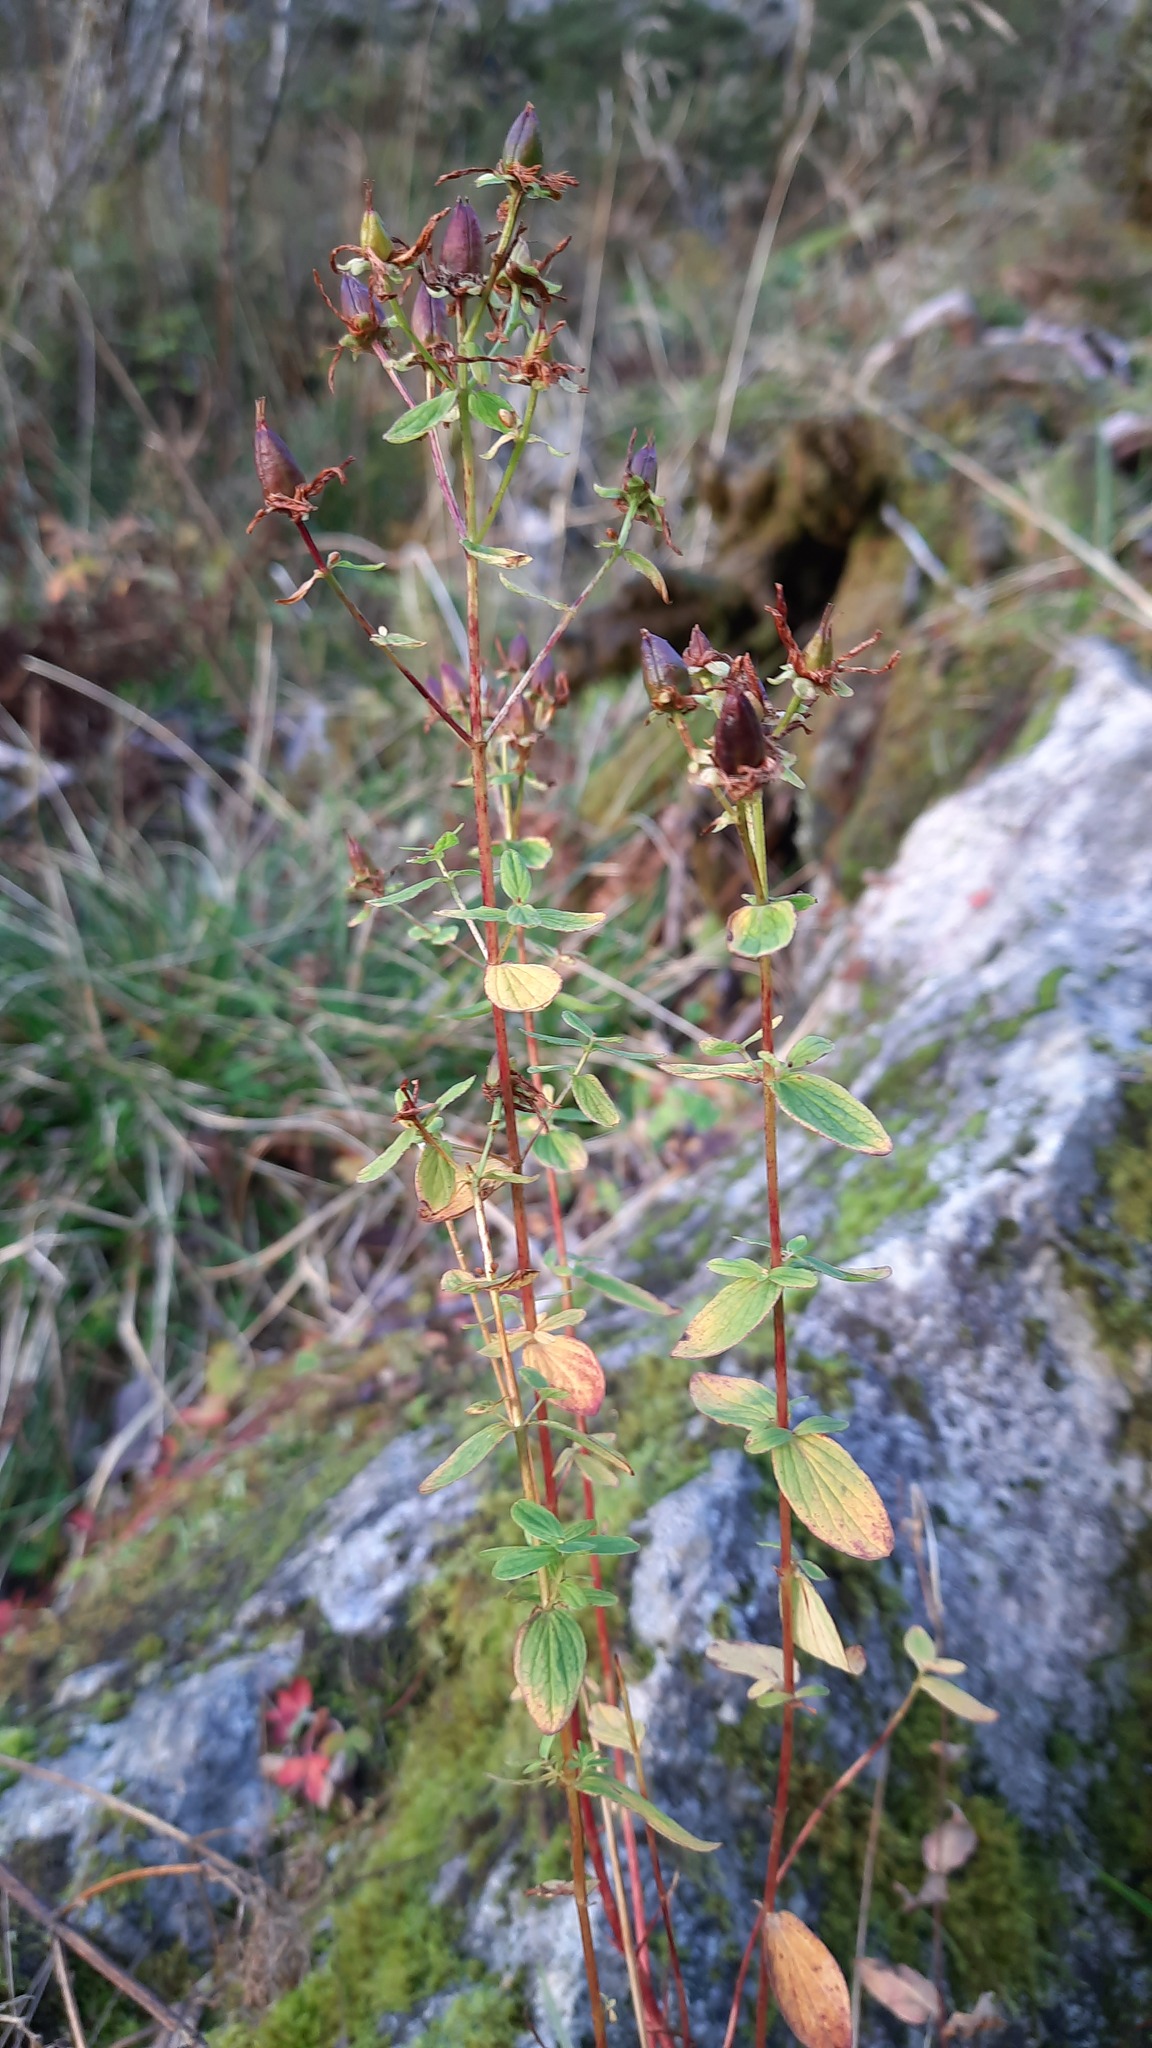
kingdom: Plantae
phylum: Tracheophyta
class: Magnoliopsida
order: Malpighiales
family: Hypericaceae
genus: Hypericum
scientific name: Hypericum maculatum
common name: Imperforate st. john's-wort
